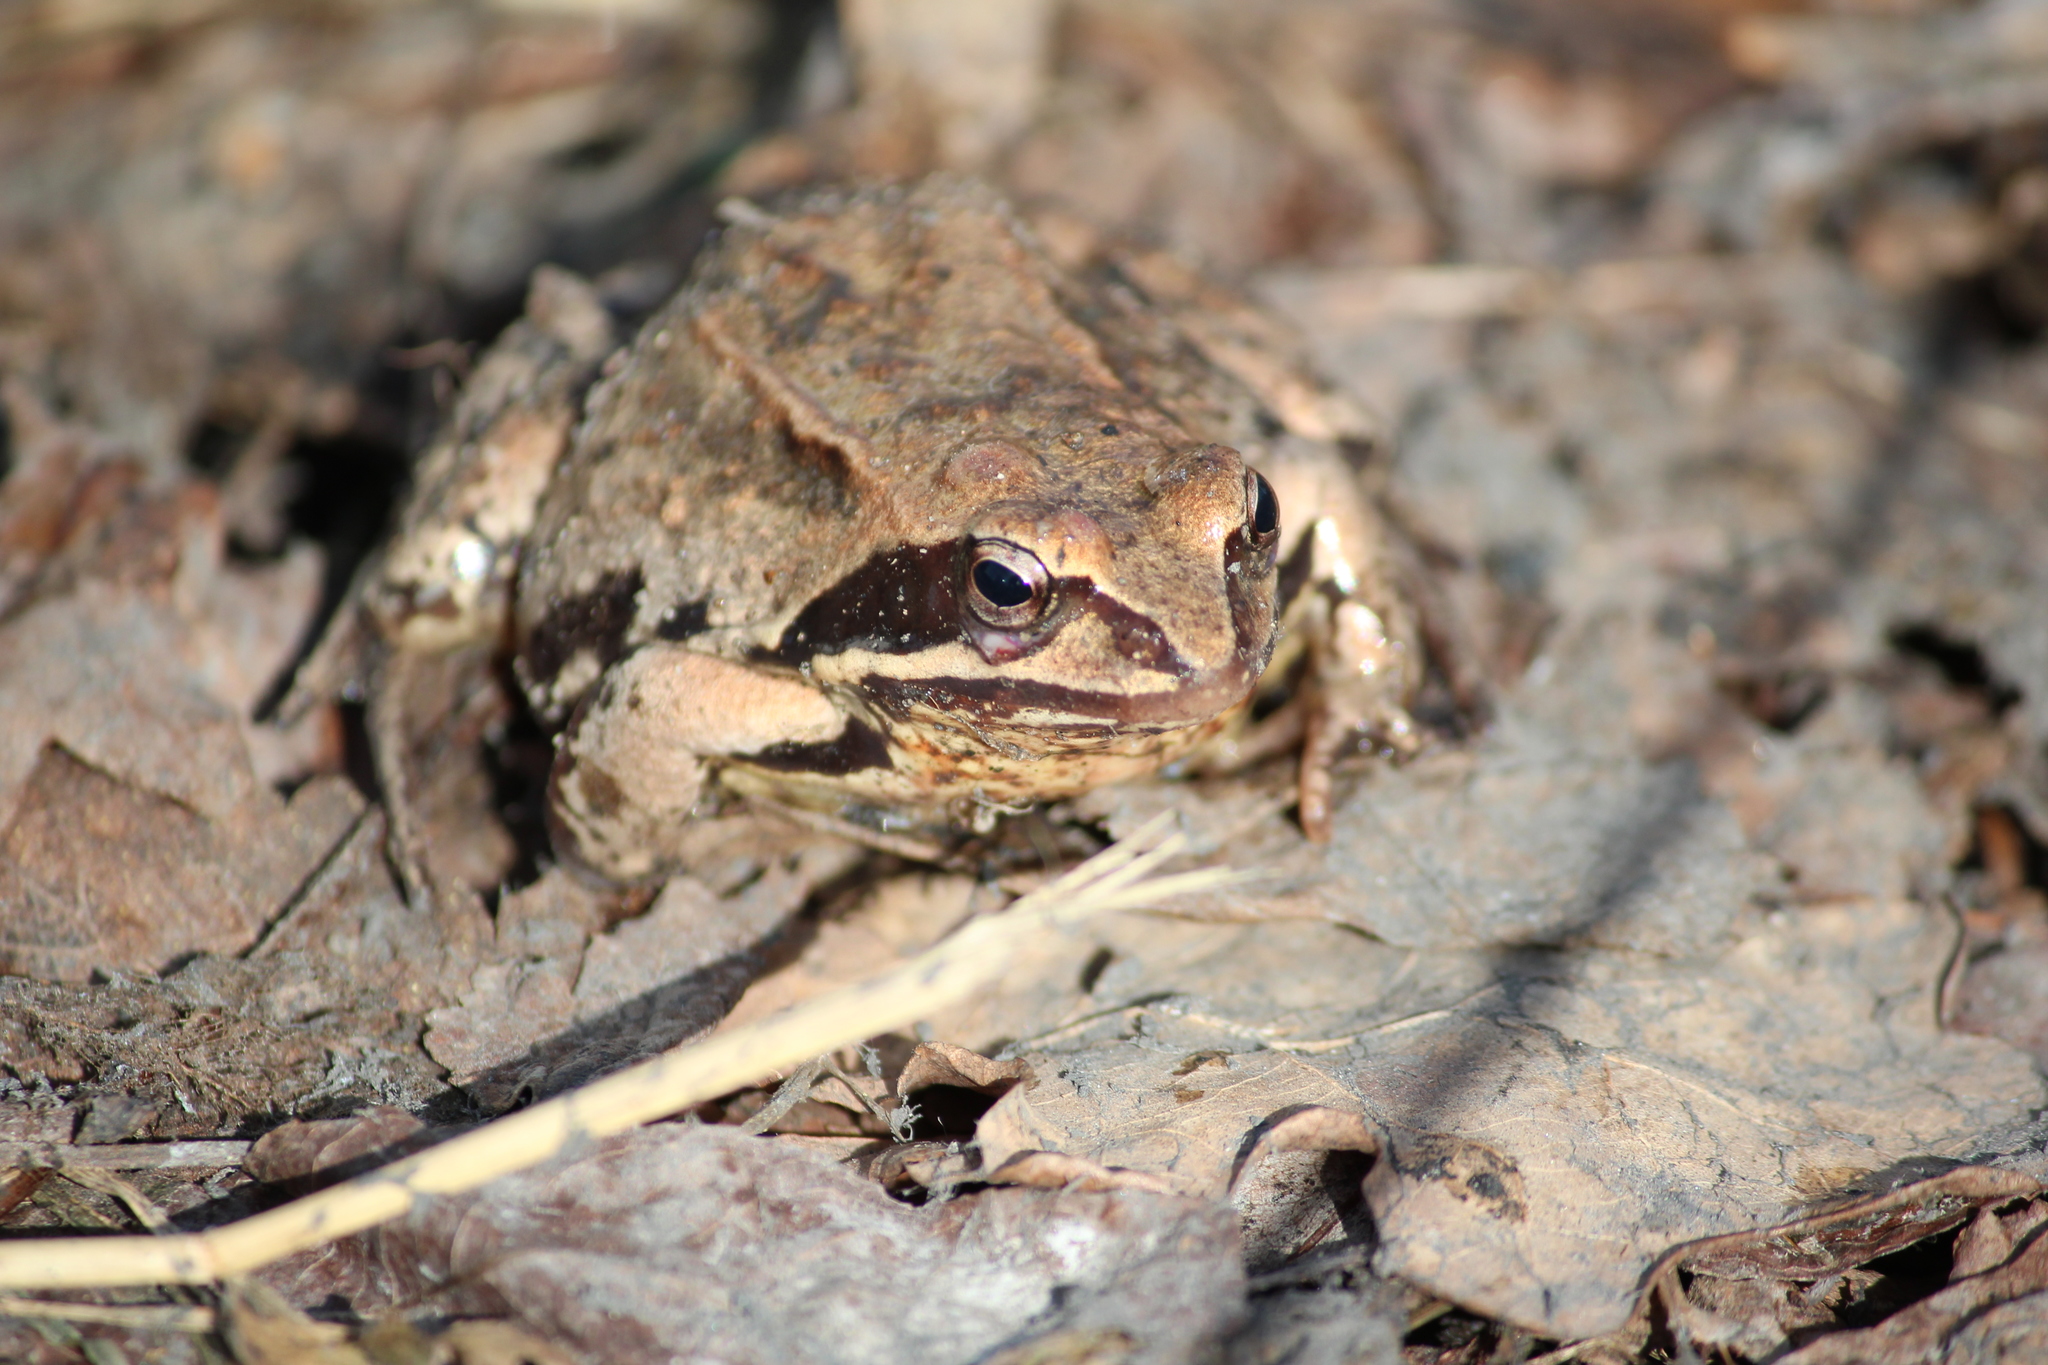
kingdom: Animalia
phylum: Chordata
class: Amphibia
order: Anura
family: Ranidae
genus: Rana
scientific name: Rana arvalis
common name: Moor frog
